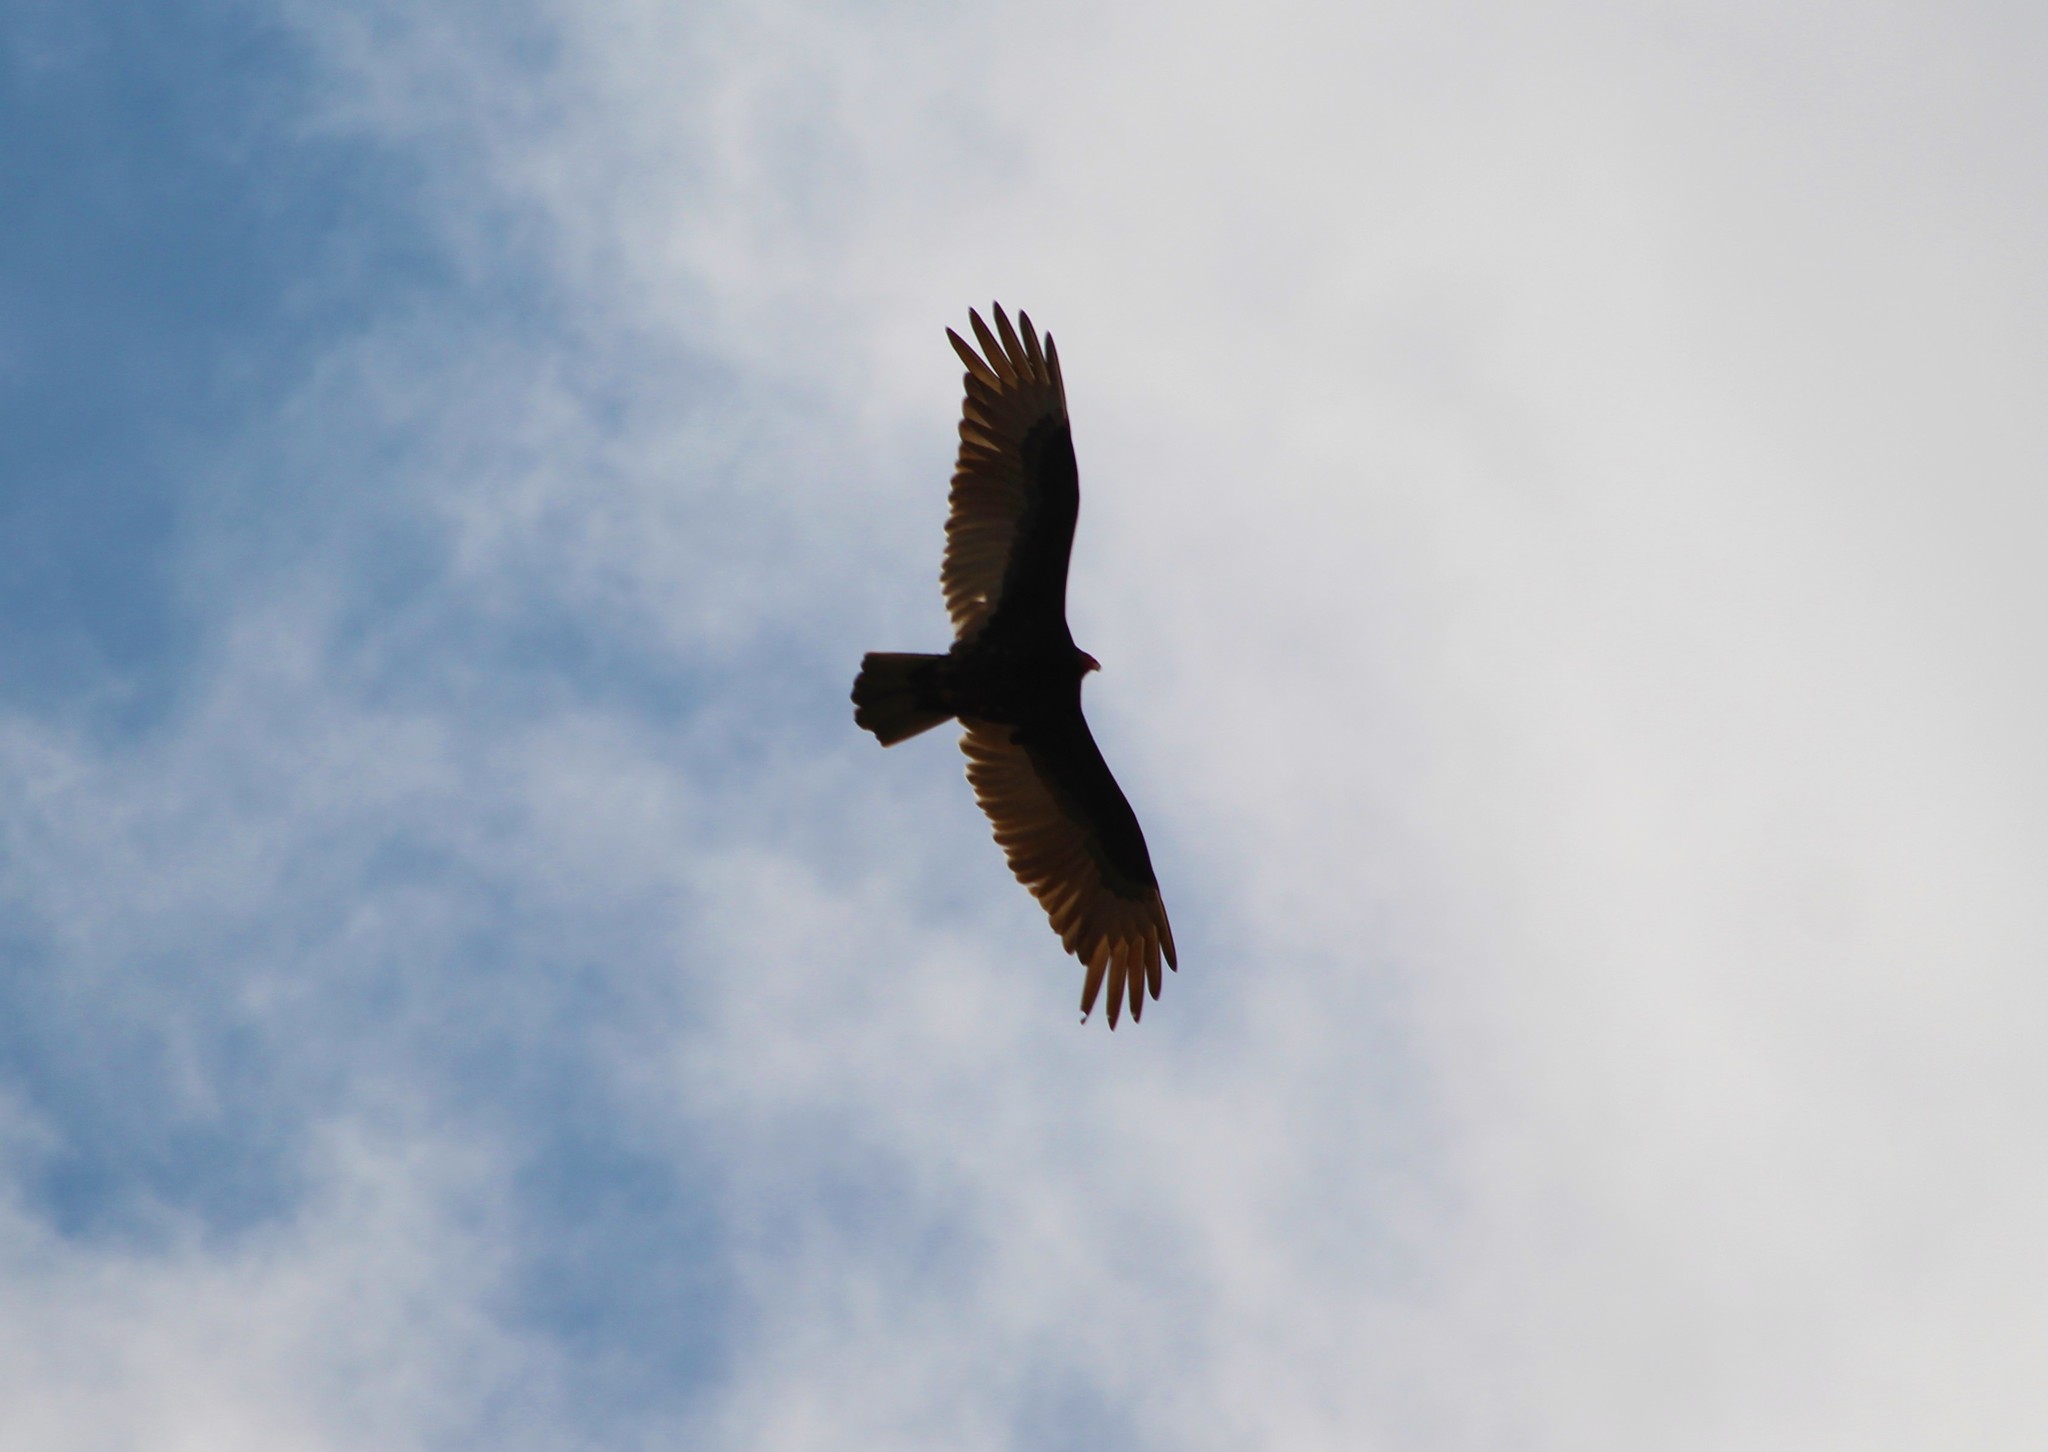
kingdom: Animalia
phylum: Chordata
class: Aves
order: Accipitriformes
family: Cathartidae
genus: Cathartes
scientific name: Cathartes aura
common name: Turkey vulture
